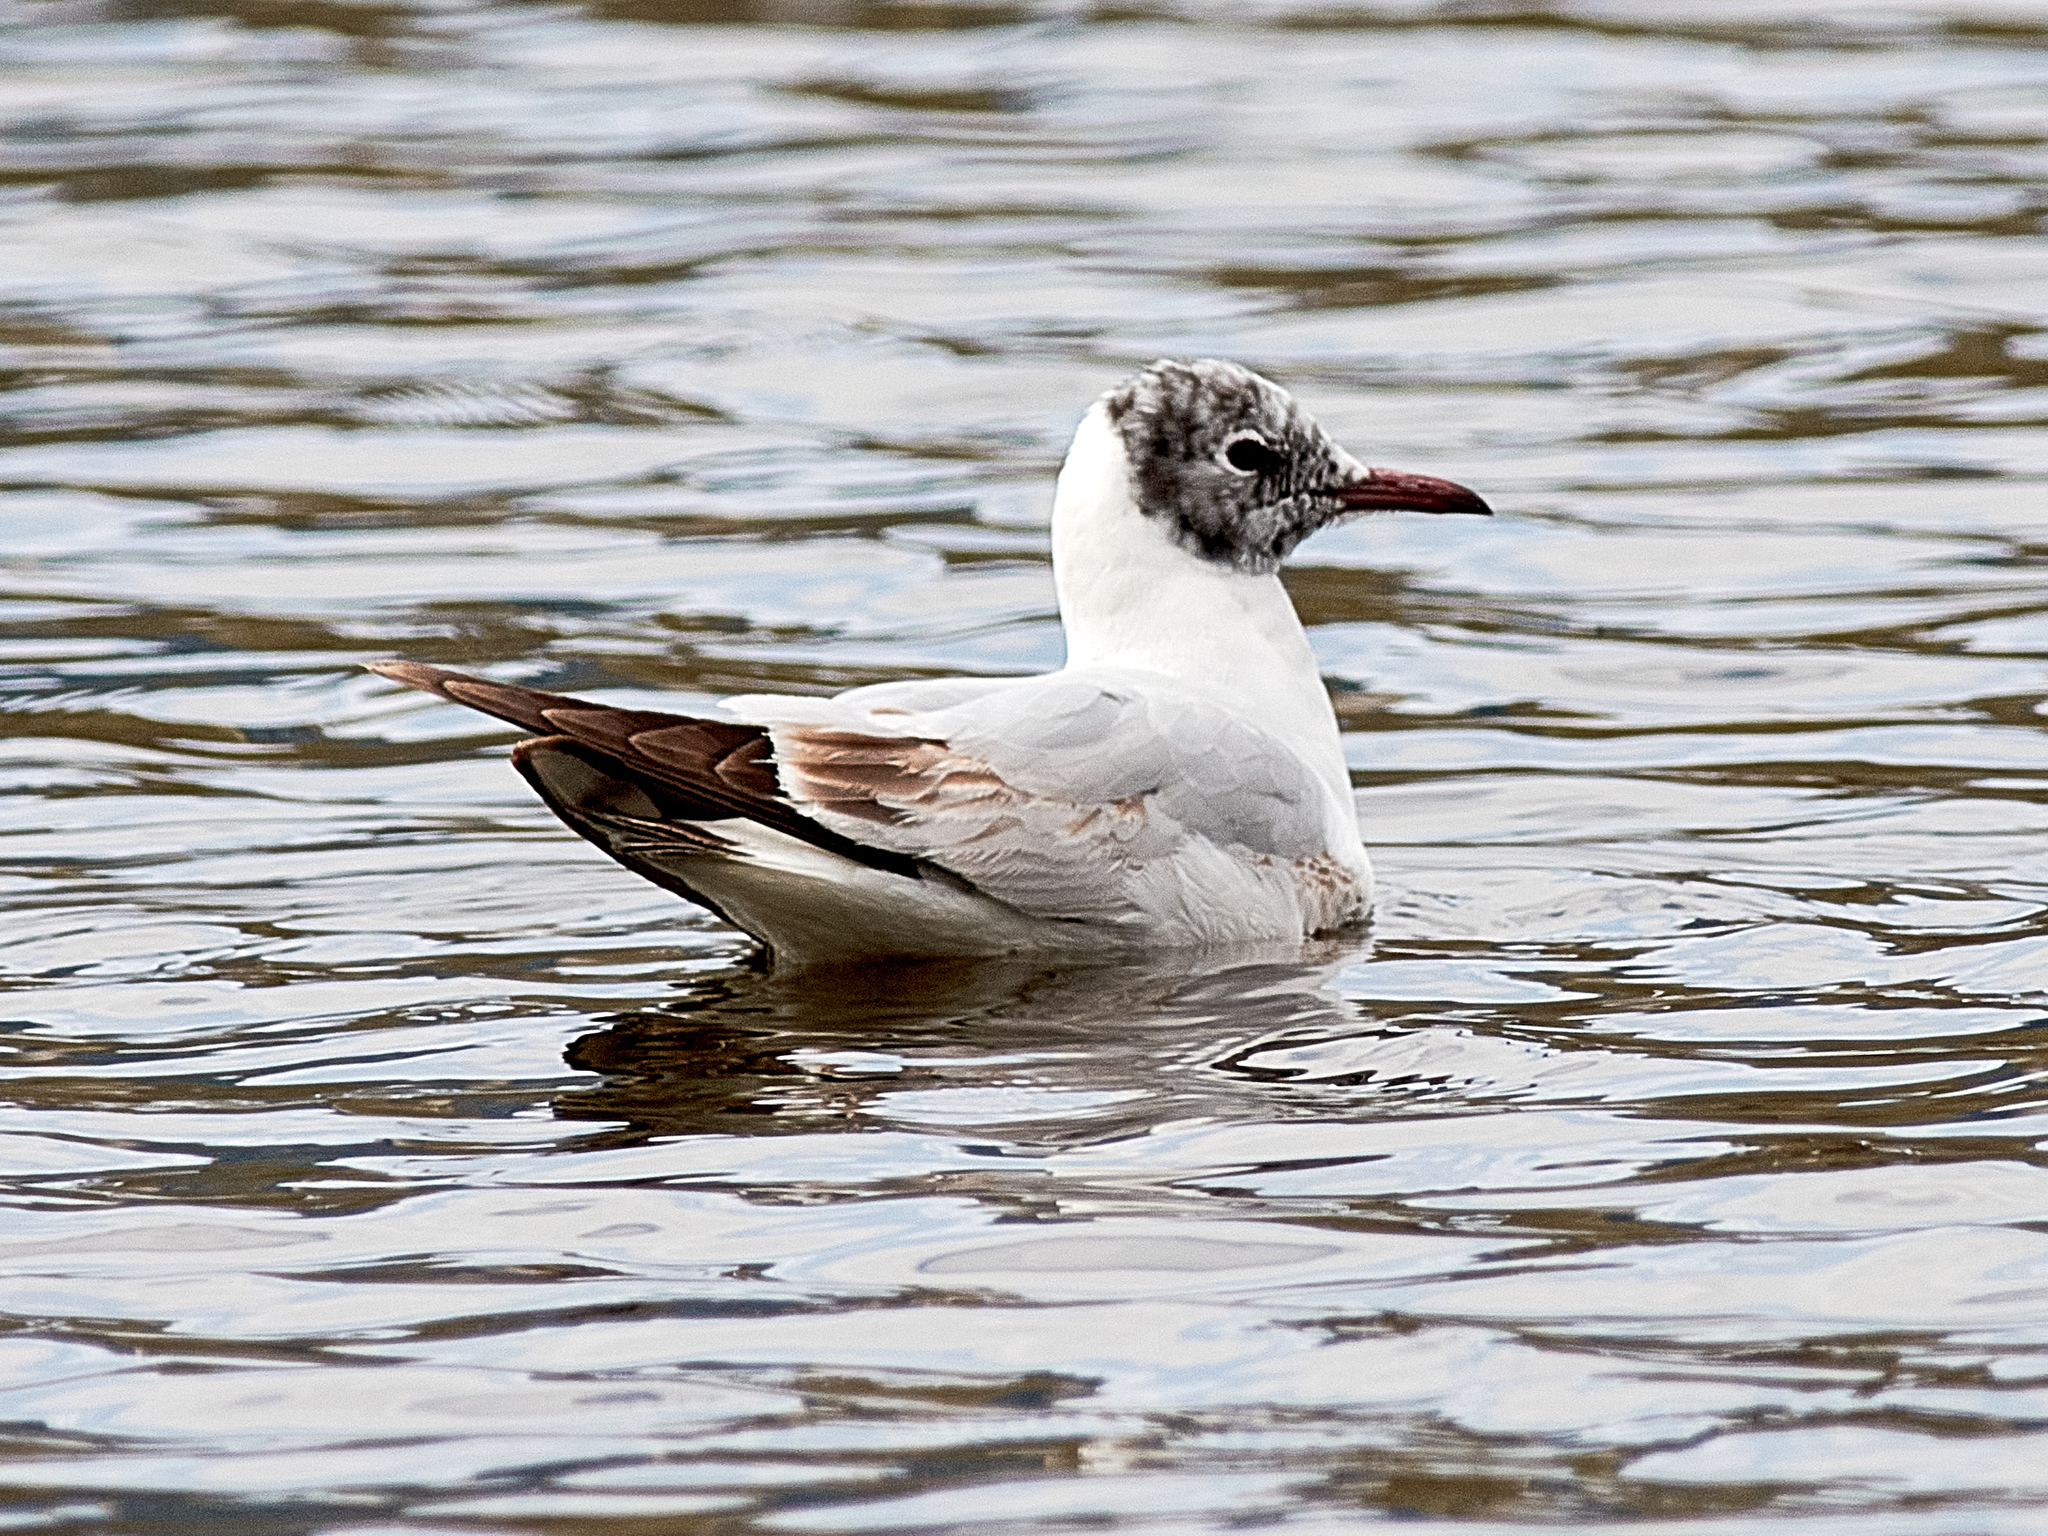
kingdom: Animalia
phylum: Chordata
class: Aves
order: Charadriiformes
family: Laridae
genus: Chroicocephalus
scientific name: Chroicocephalus ridibundus
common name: Black-headed gull
